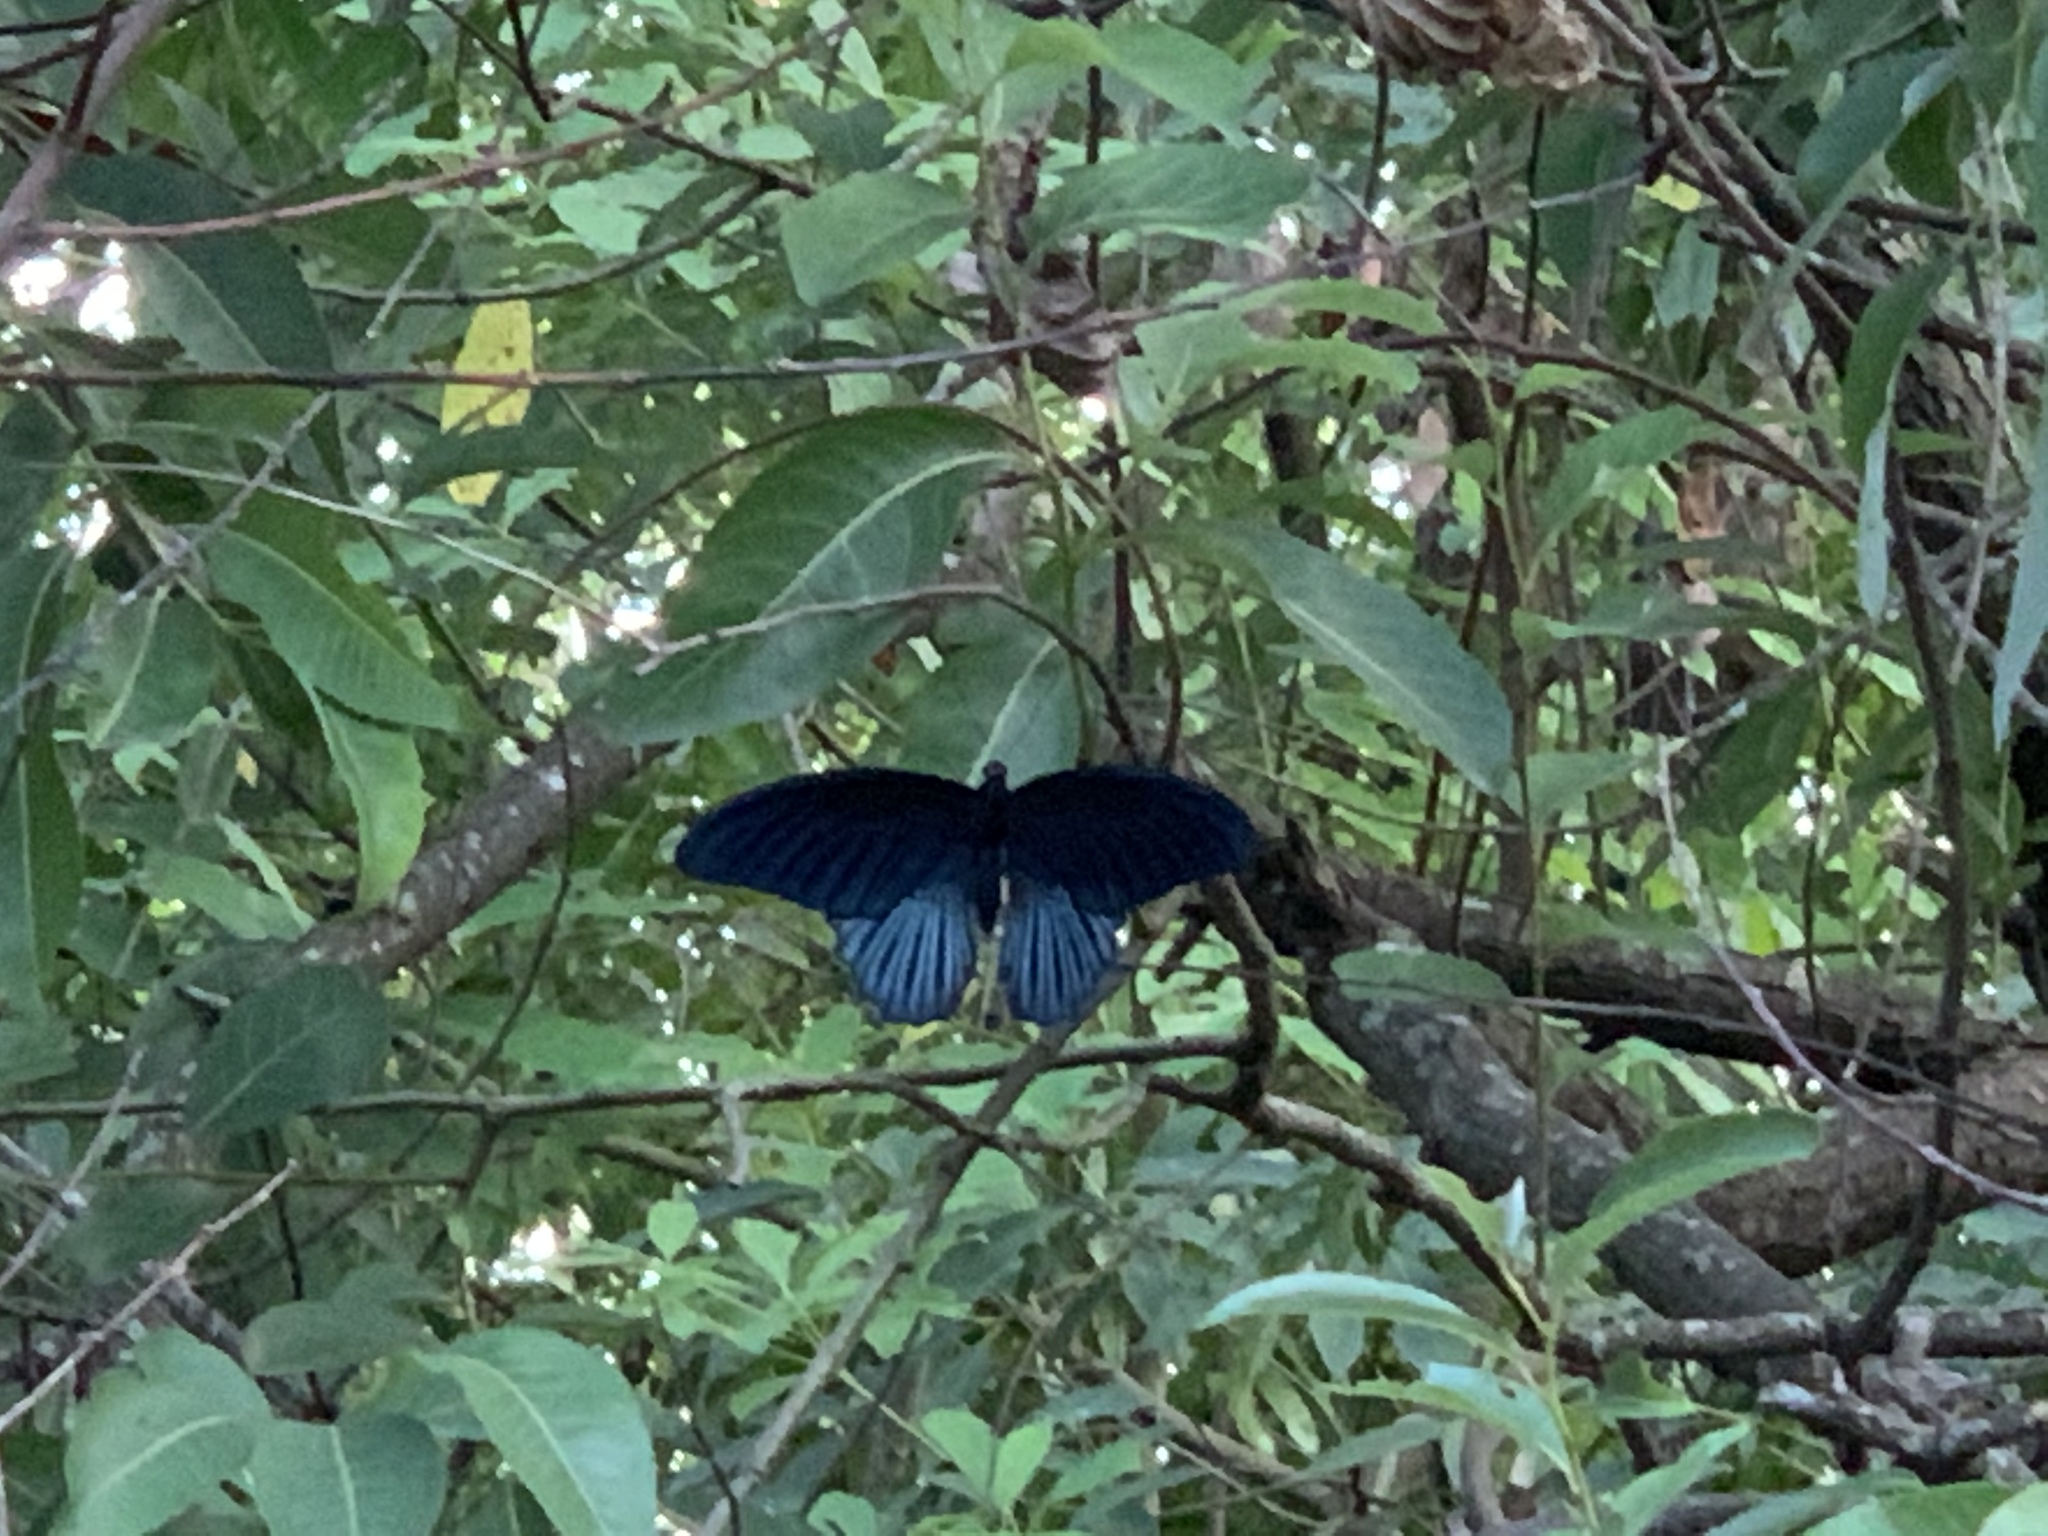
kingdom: Animalia
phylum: Arthropoda
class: Insecta
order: Lepidoptera
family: Papilionidae
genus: Papilio
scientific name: Papilio memnon
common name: Great mormon
